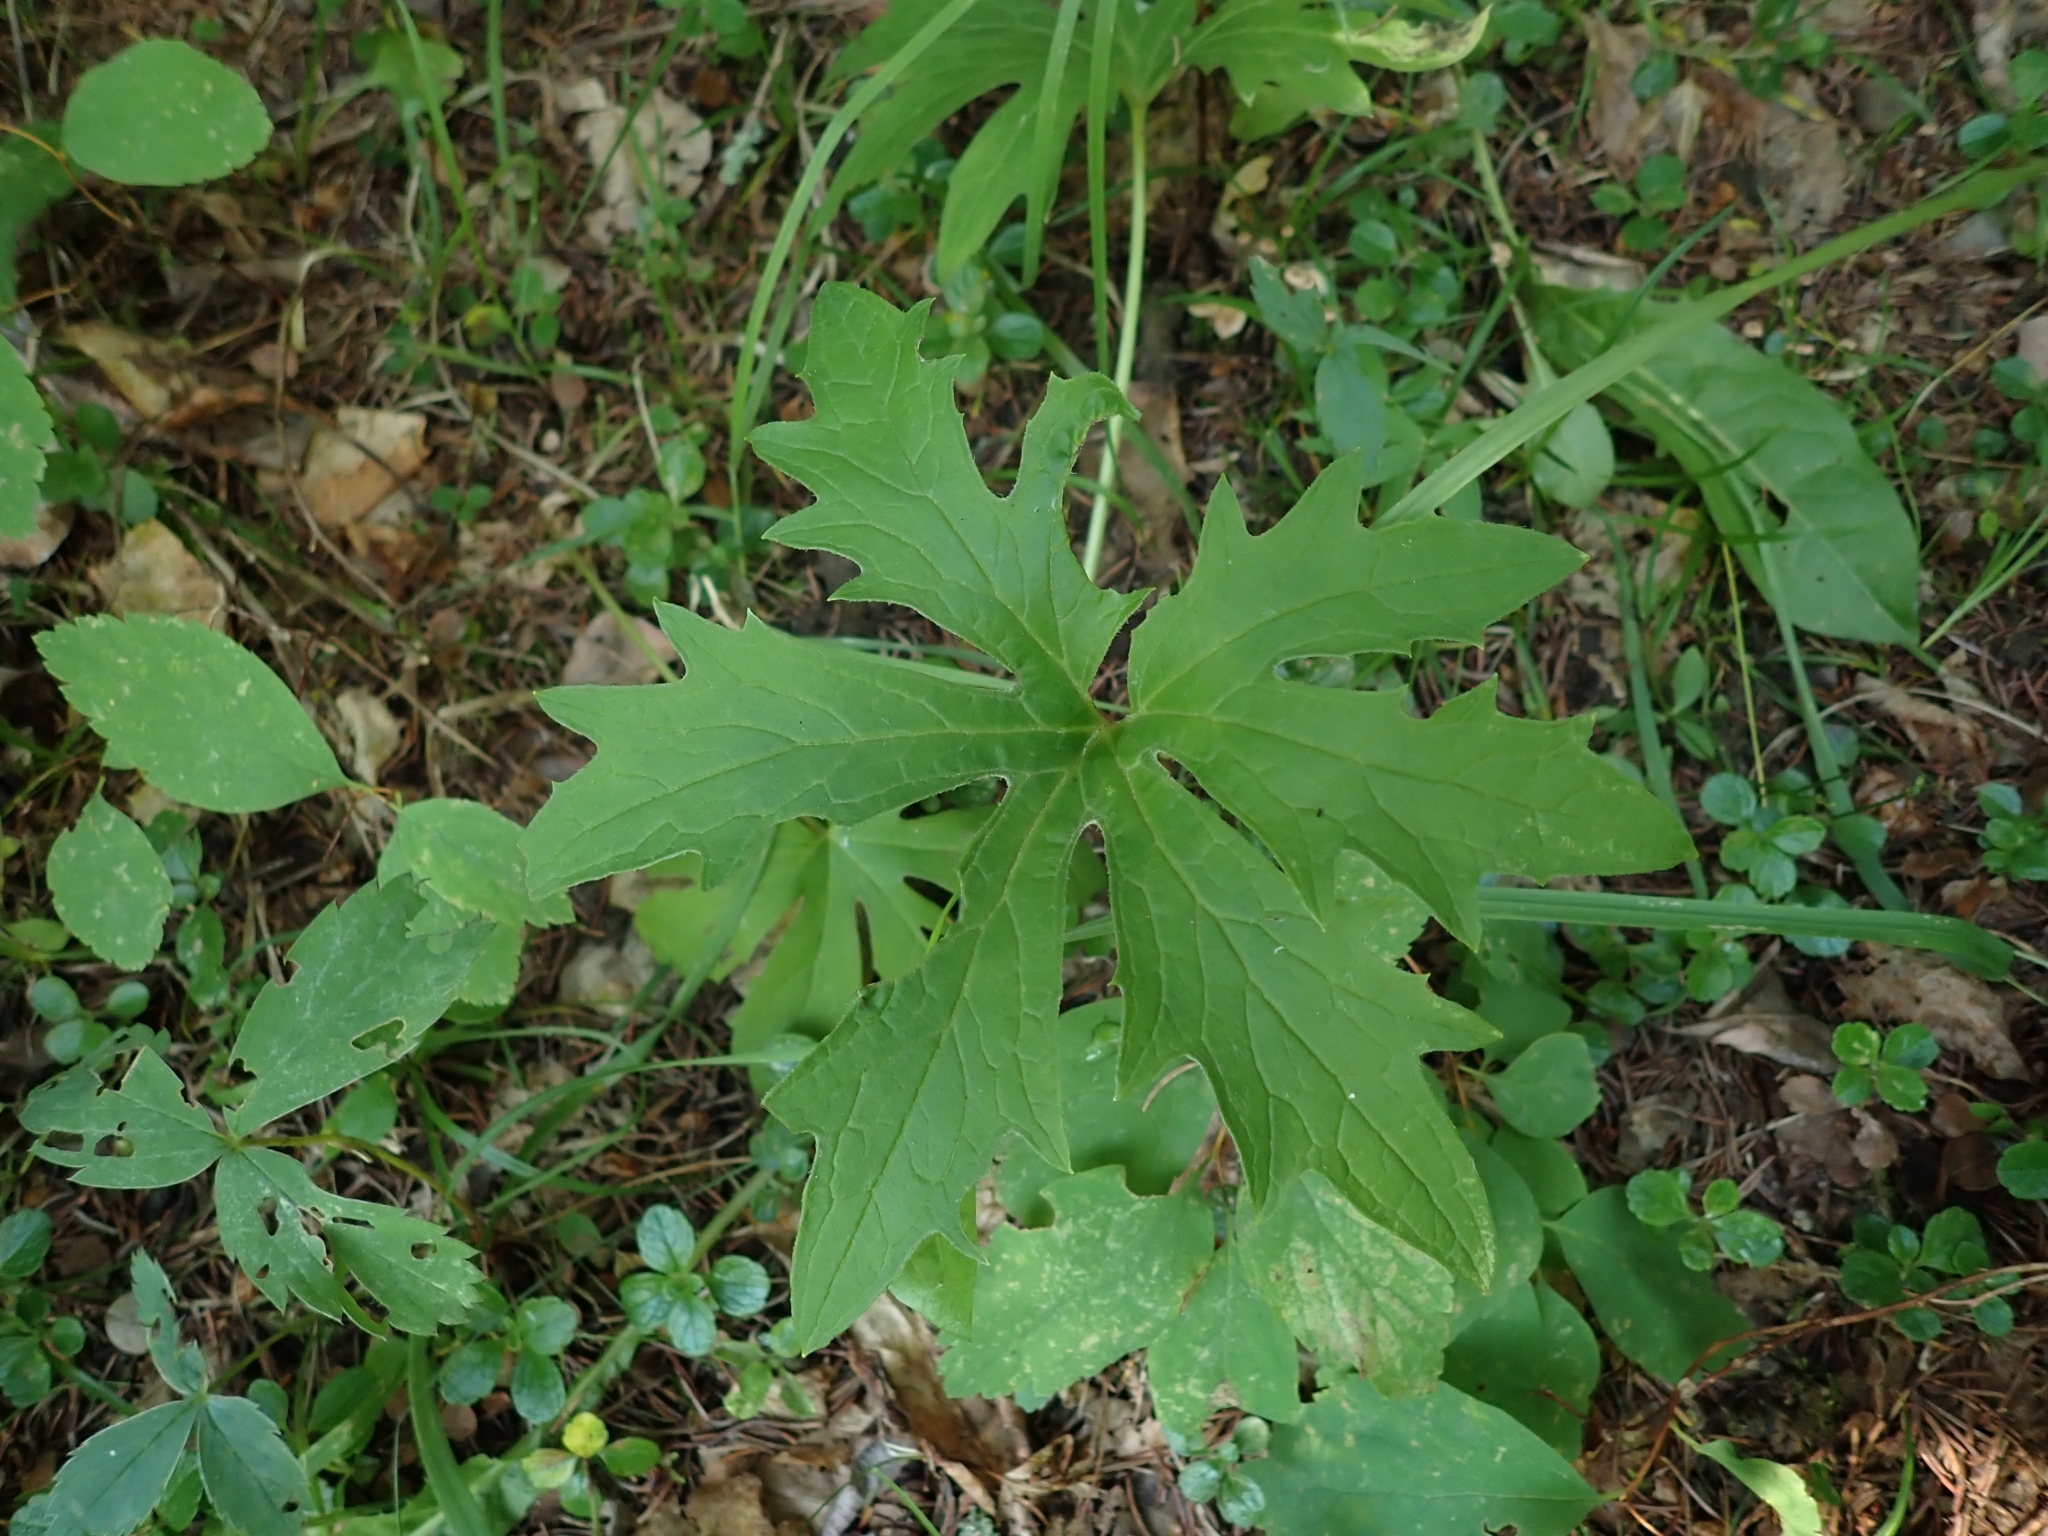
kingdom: Plantae
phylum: Tracheophyta
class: Magnoliopsida
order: Asterales
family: Asteraceae
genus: Petasites
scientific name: Petasites frigidus
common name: Arctic butterbur
